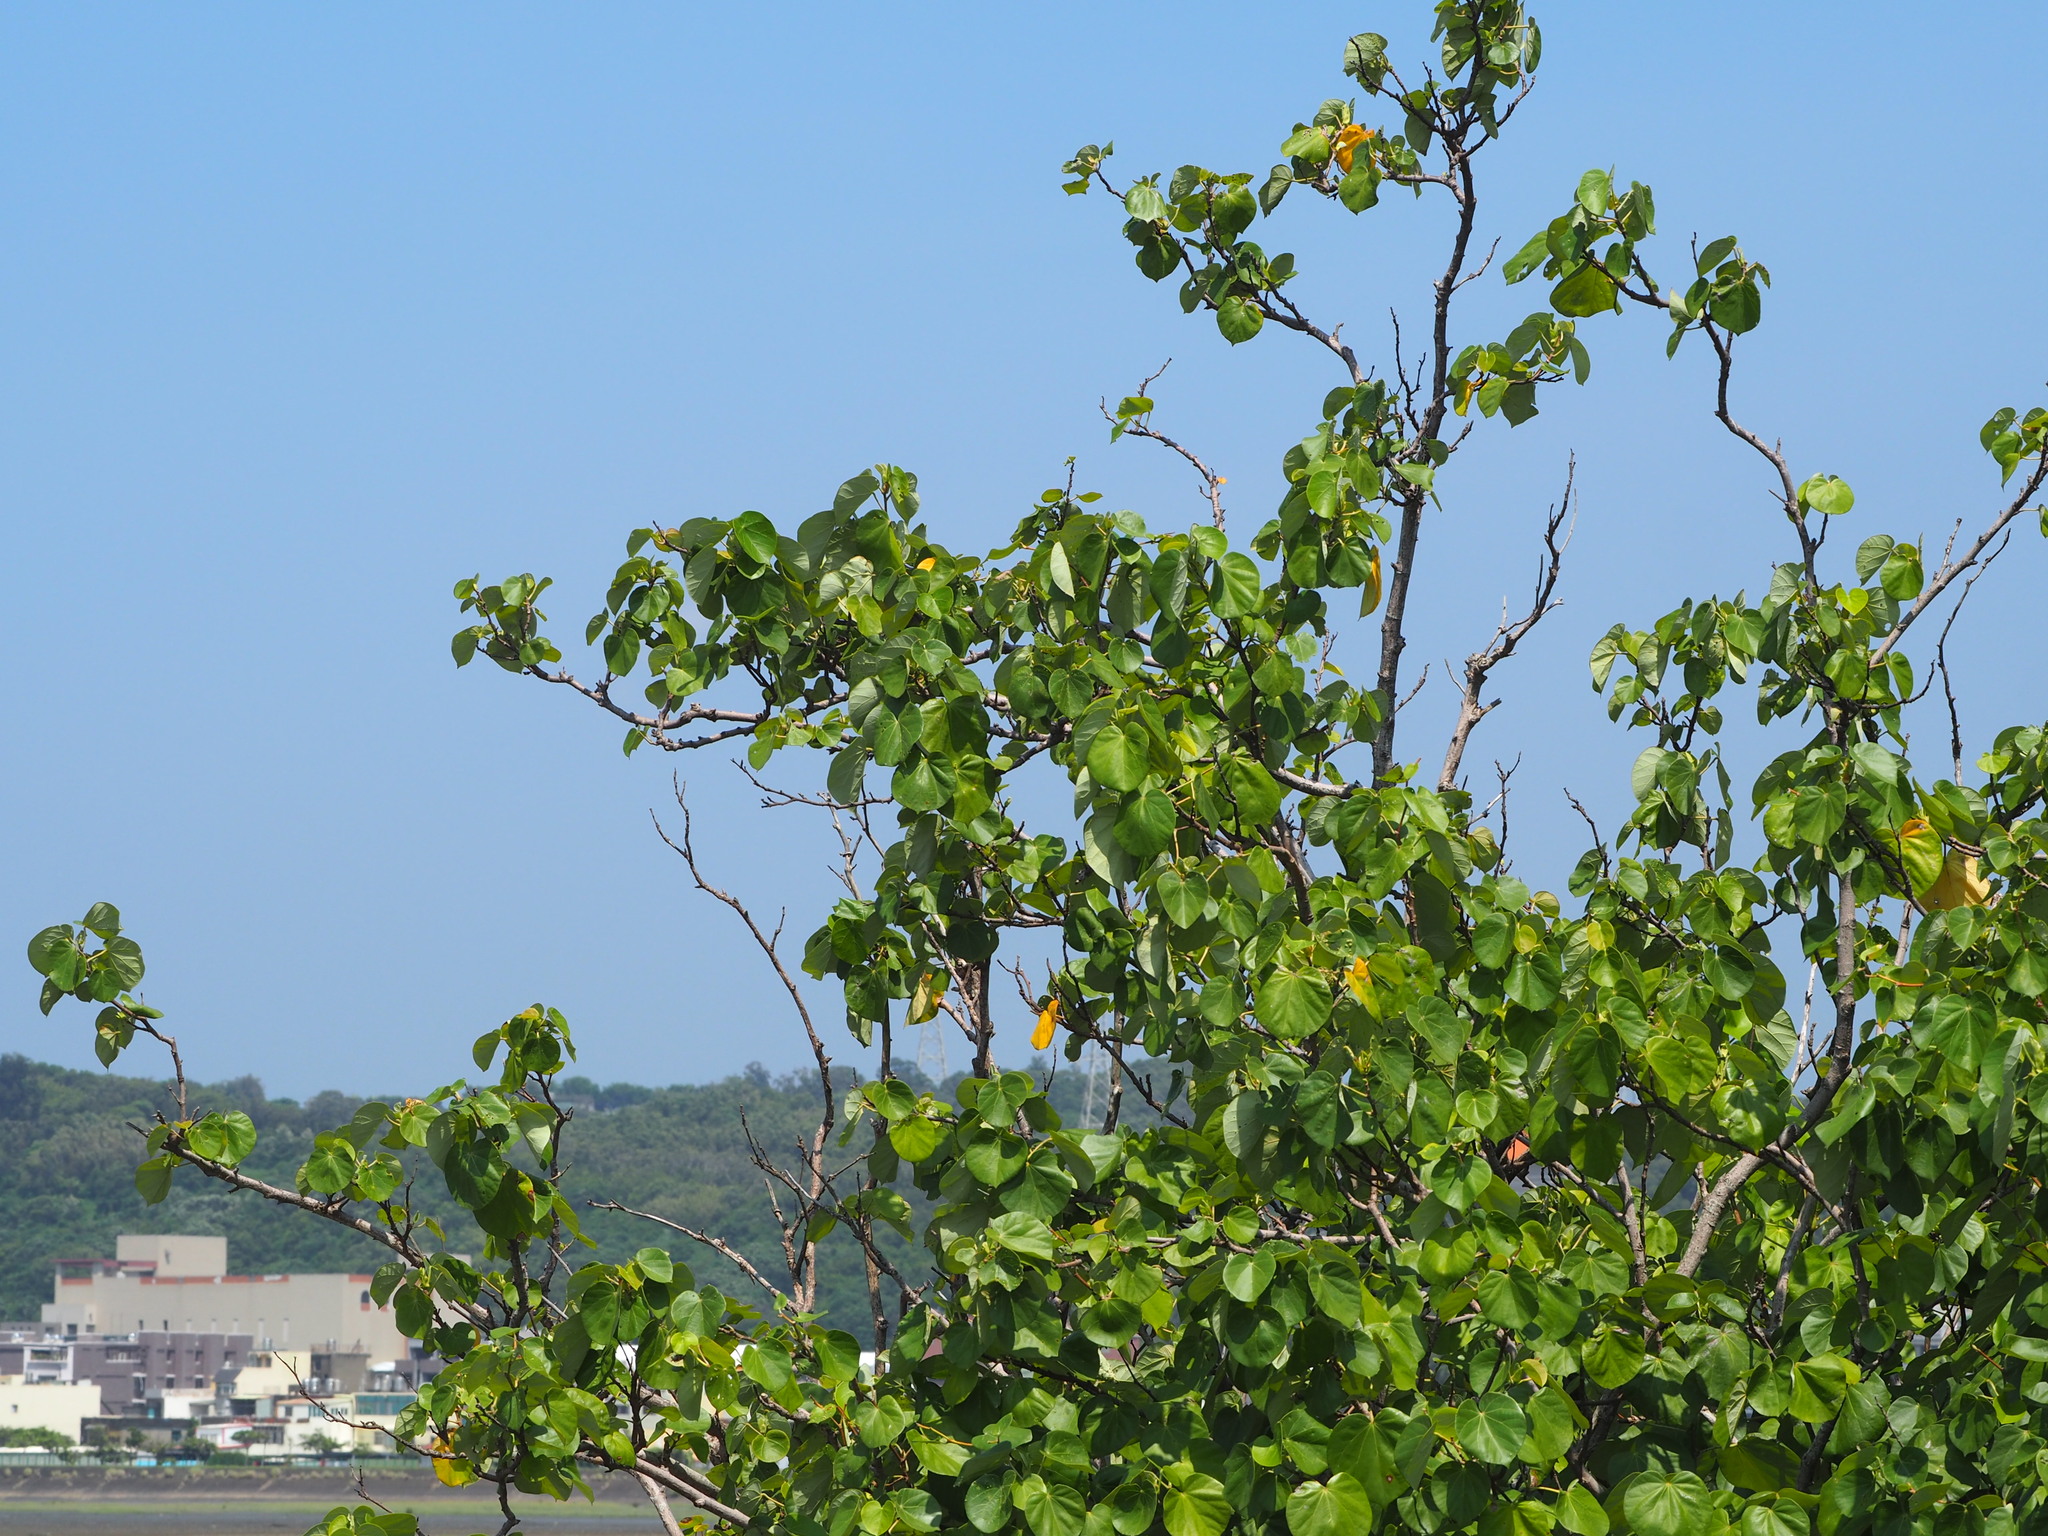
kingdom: Plantae
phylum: Tracheophyta
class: Magnoliopsida
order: Malvales
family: Malvaceae
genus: Talipariti
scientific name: Talipariti tiliaceum
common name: Sea hibiscus
